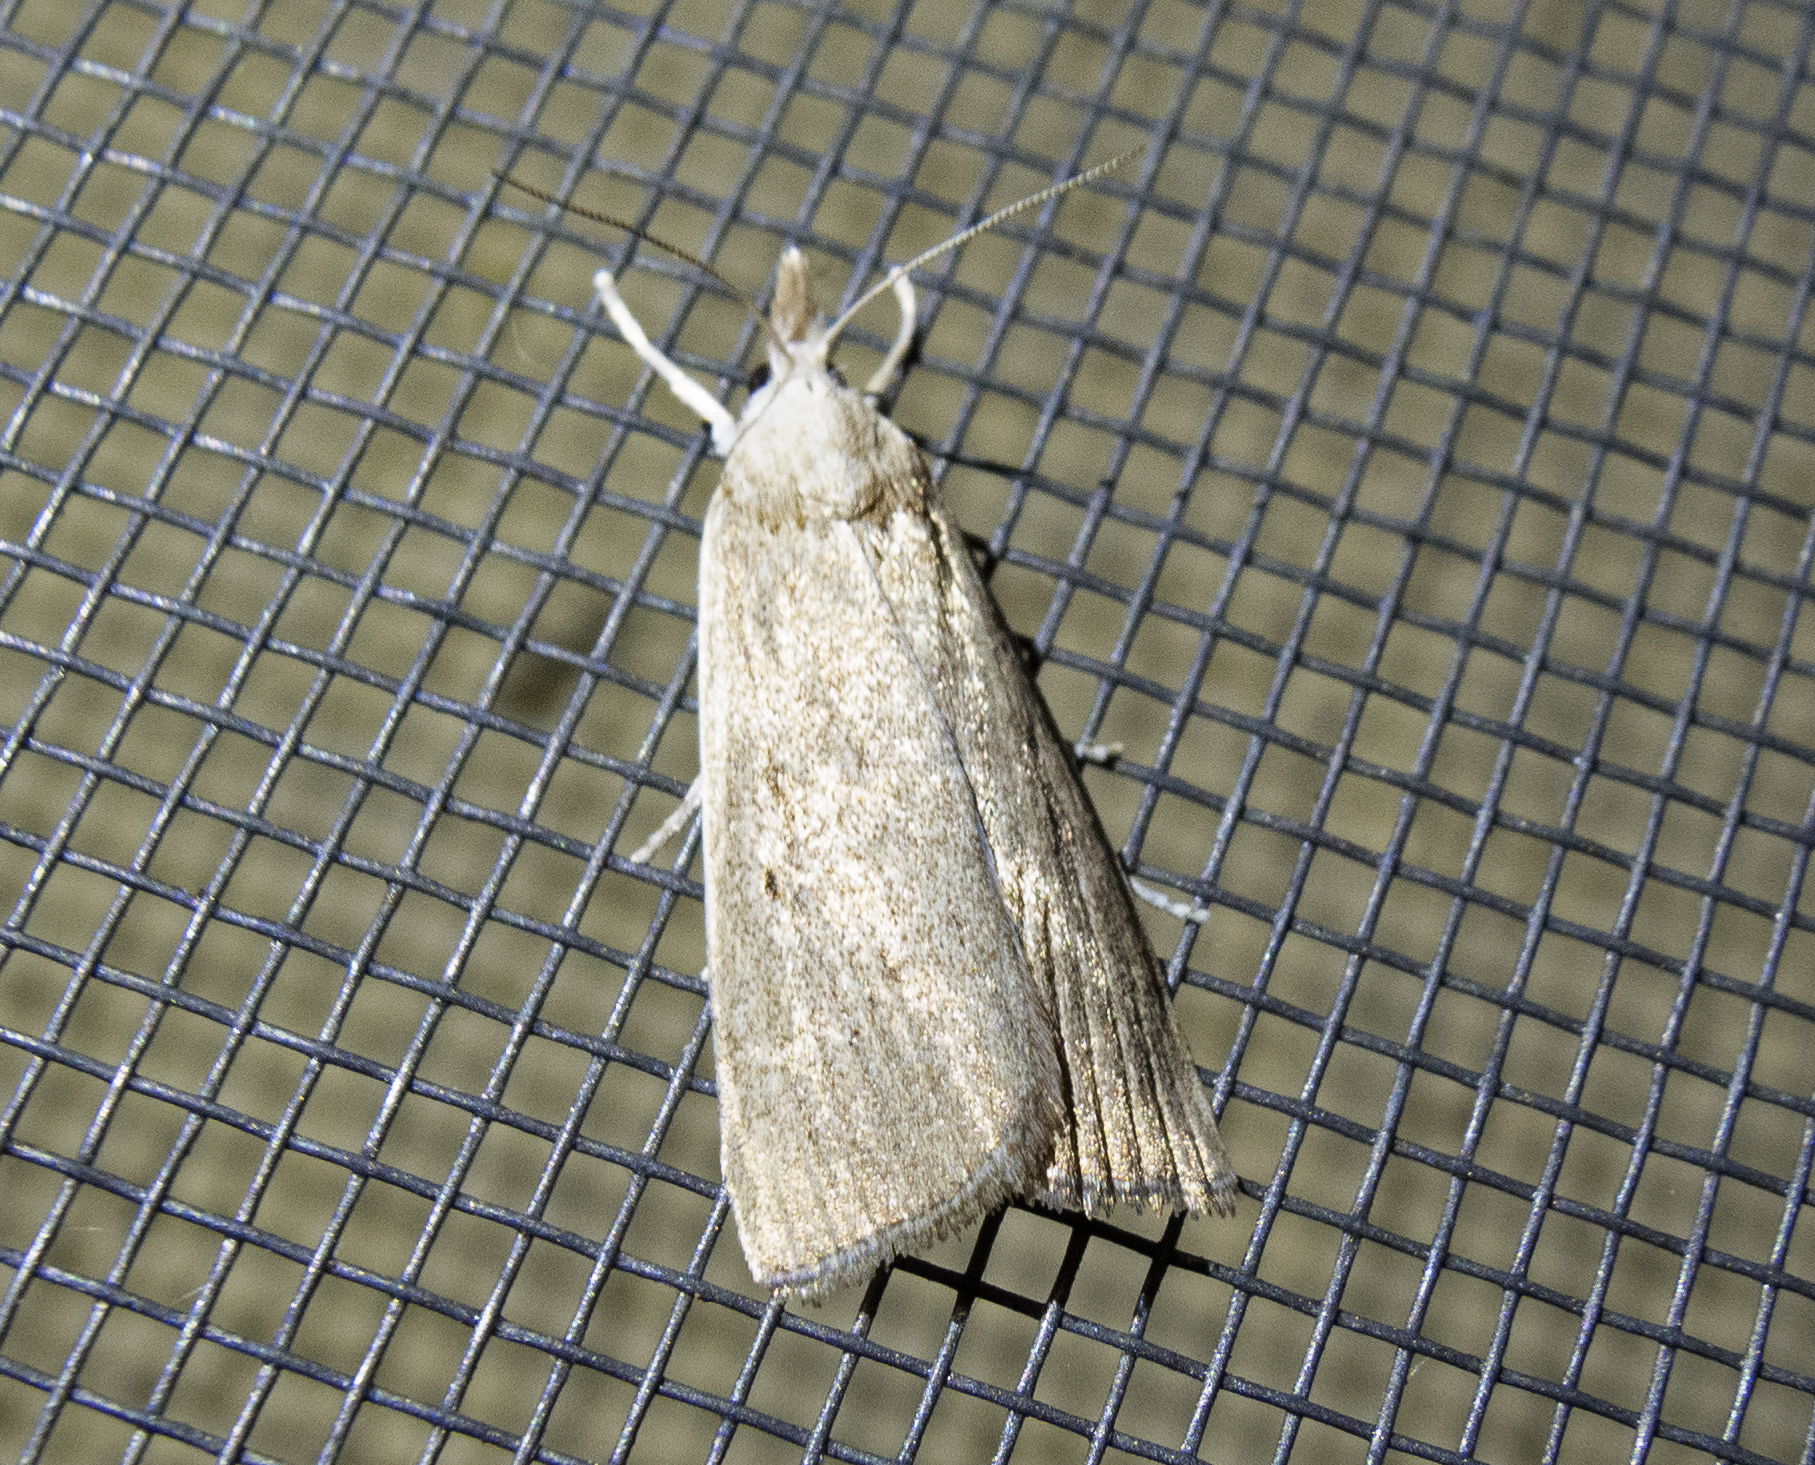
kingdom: Animalia
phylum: Arthropoda
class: Insecta
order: Lepidoptera
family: Crambidae
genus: Calamotropha
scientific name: Calamotropha paludella
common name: Bulrush veneer
